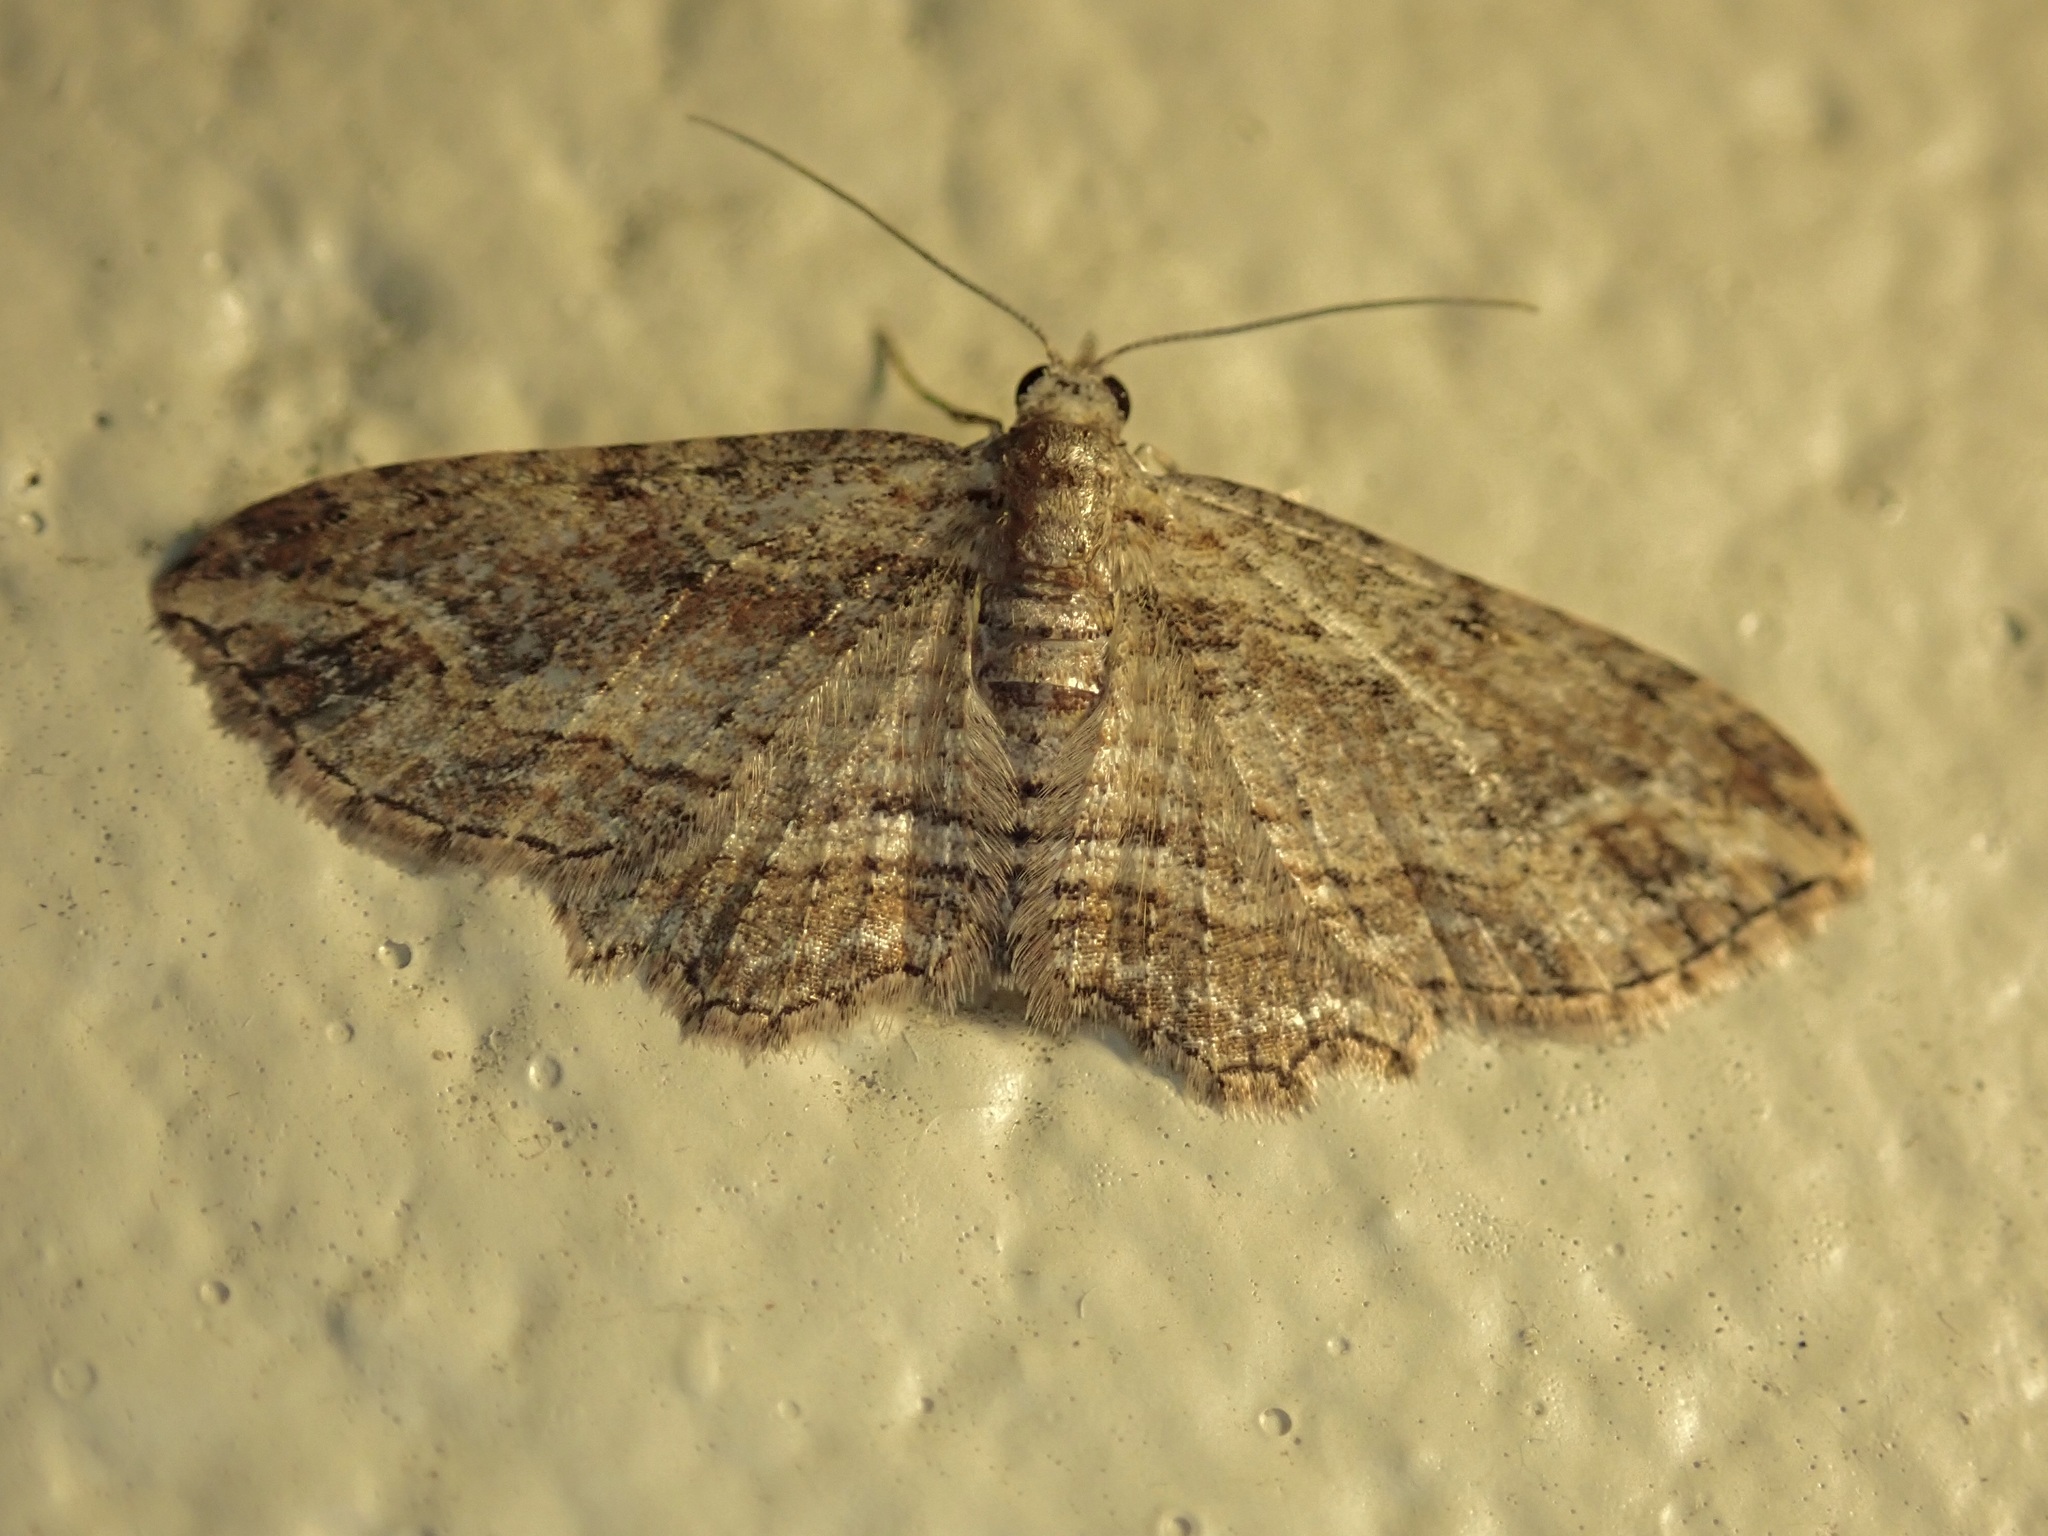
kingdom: Animalia
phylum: Arthropoda
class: Insecta
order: Lepidoptera
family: Geometridae
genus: Chloroclystis
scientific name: Chloroclystis filata
